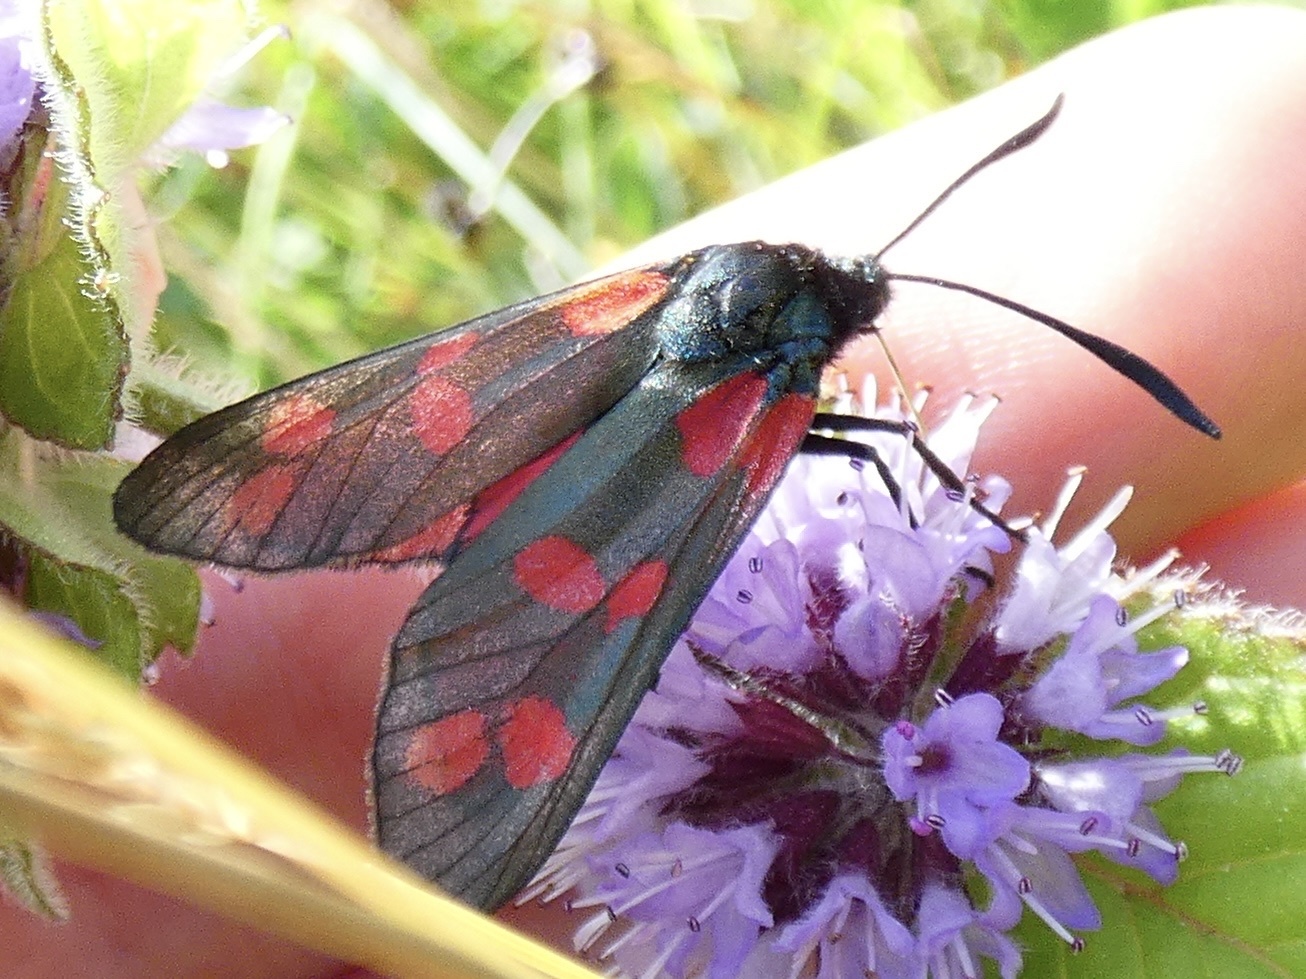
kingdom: Animalia
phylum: Arthropoda
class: Insecta
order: Lepidoptera
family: Zygaenidae
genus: Zygaena
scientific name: Zygaena filipendulae
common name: Six-spot burnet
